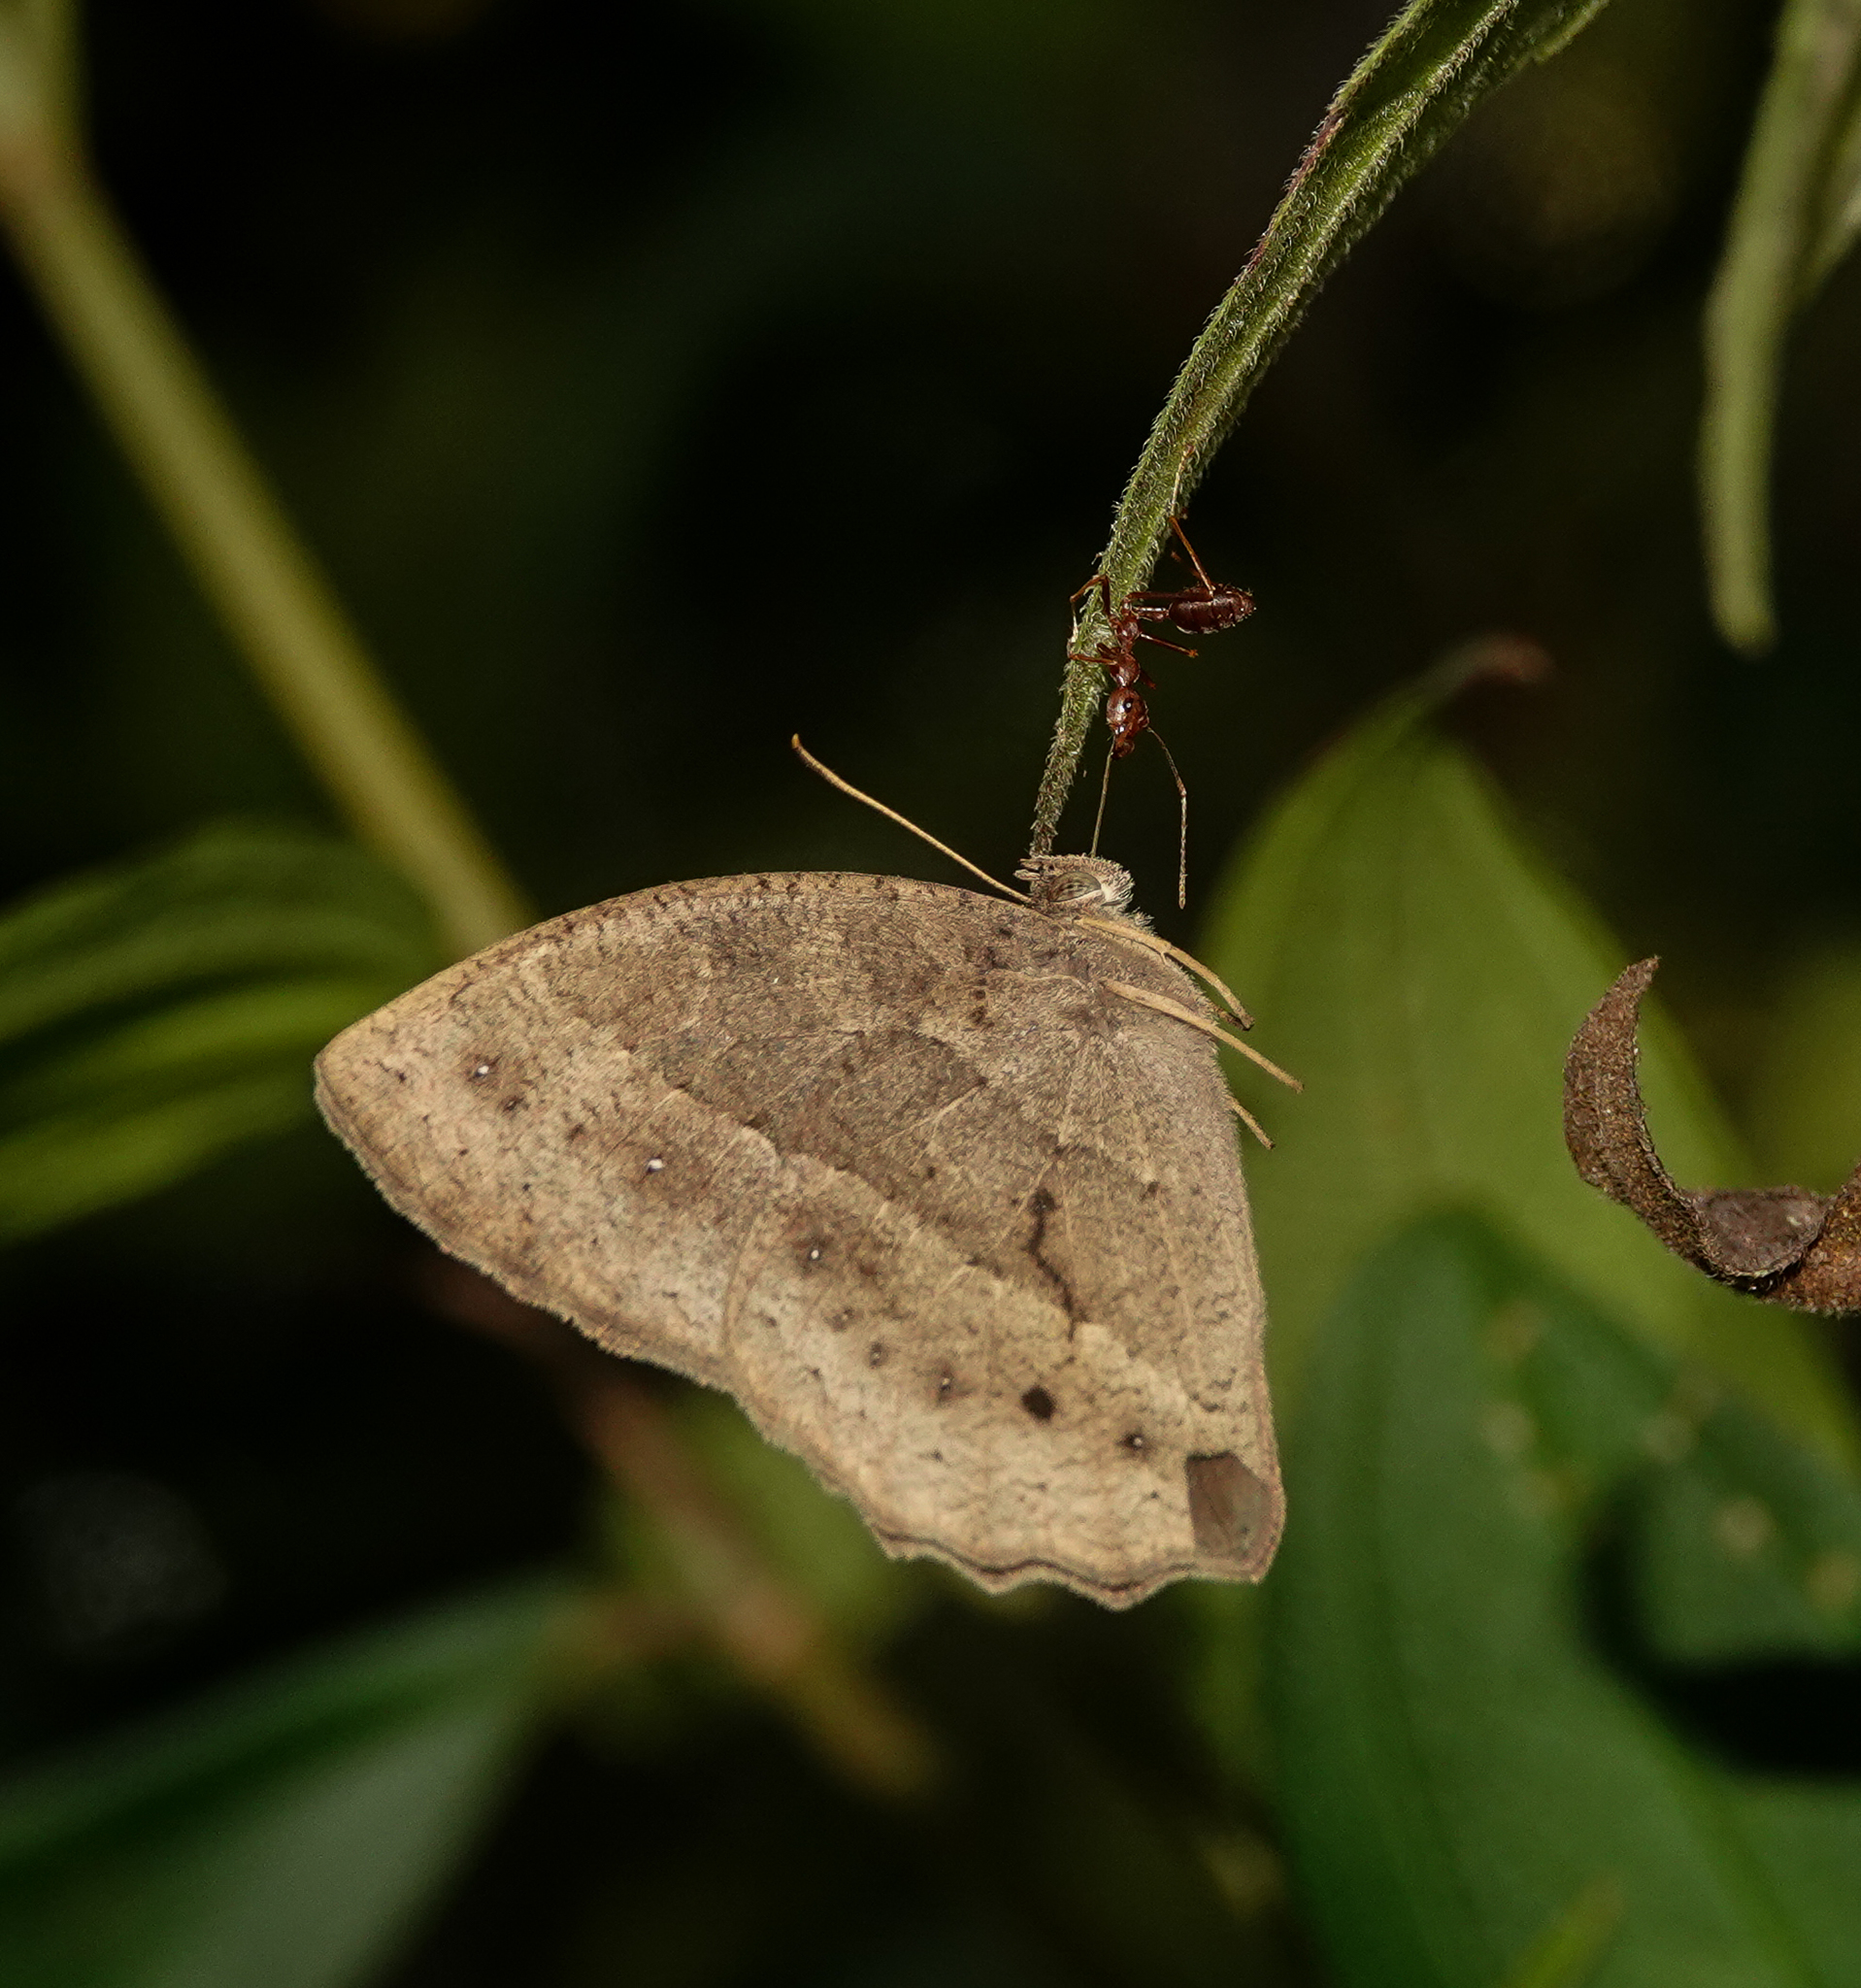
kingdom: Animalia
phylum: Arthropoda
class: Insecta
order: Hymenoptera
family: Formicidae
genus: Oecophylla
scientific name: Oecophylla smaragdina
